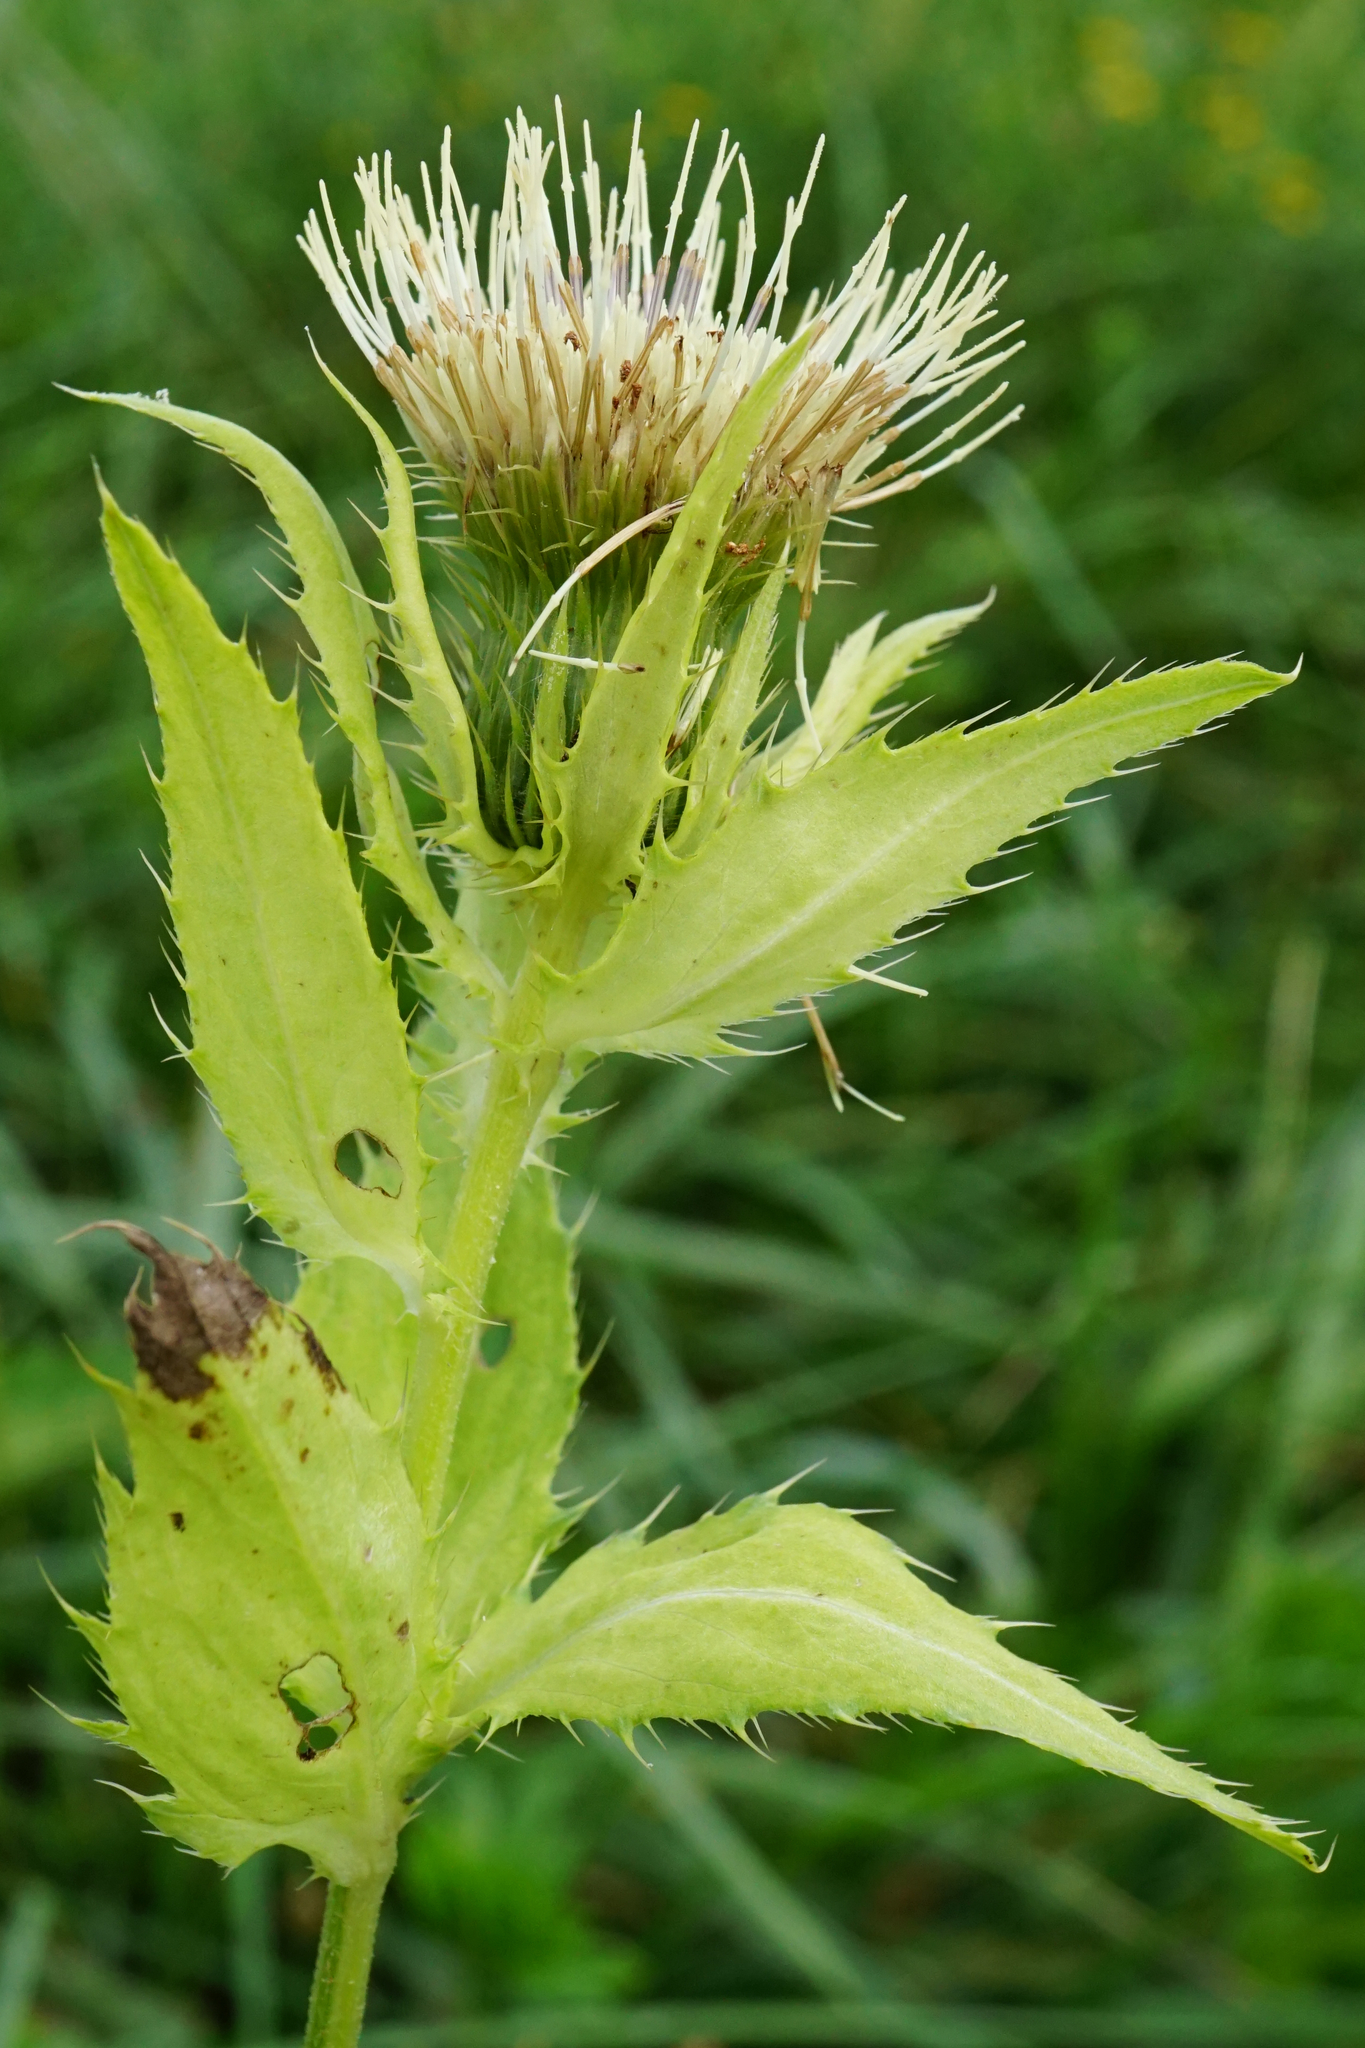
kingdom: Plantae
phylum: Tracheophyta
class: Magnoliopsida
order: Asterales
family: Asteraceae
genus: Cirsium
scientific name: Cirsium oleraceum
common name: Cabbage thistle
